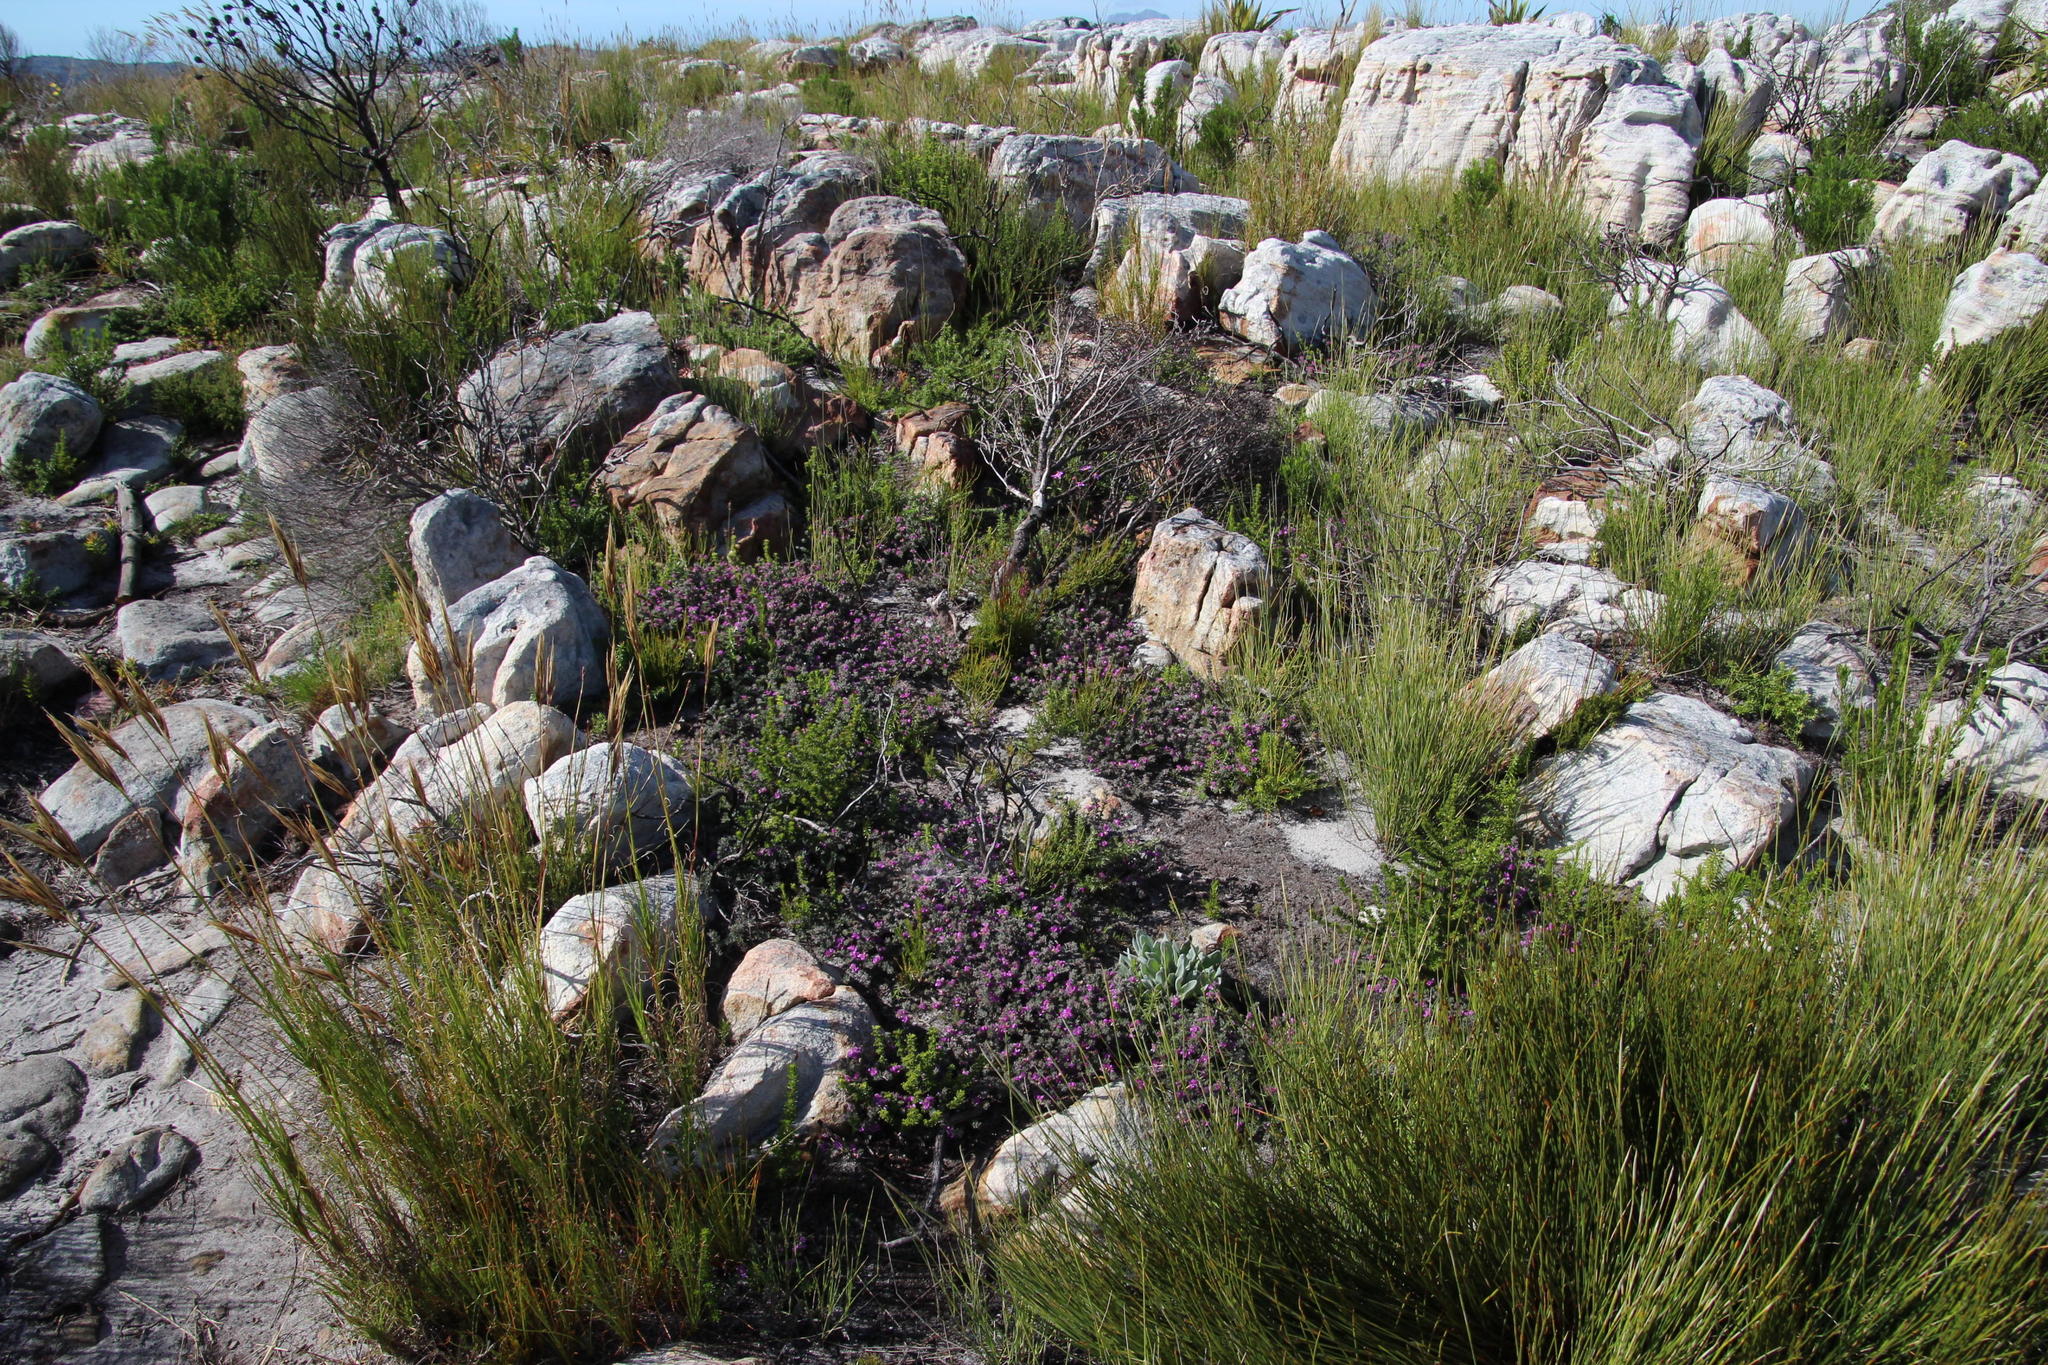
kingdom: Plantae
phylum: Tracheophyta
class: Magnoliopsida
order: Fabales
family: Fabaceae
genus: Indigofera
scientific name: Indigofera glomerata
